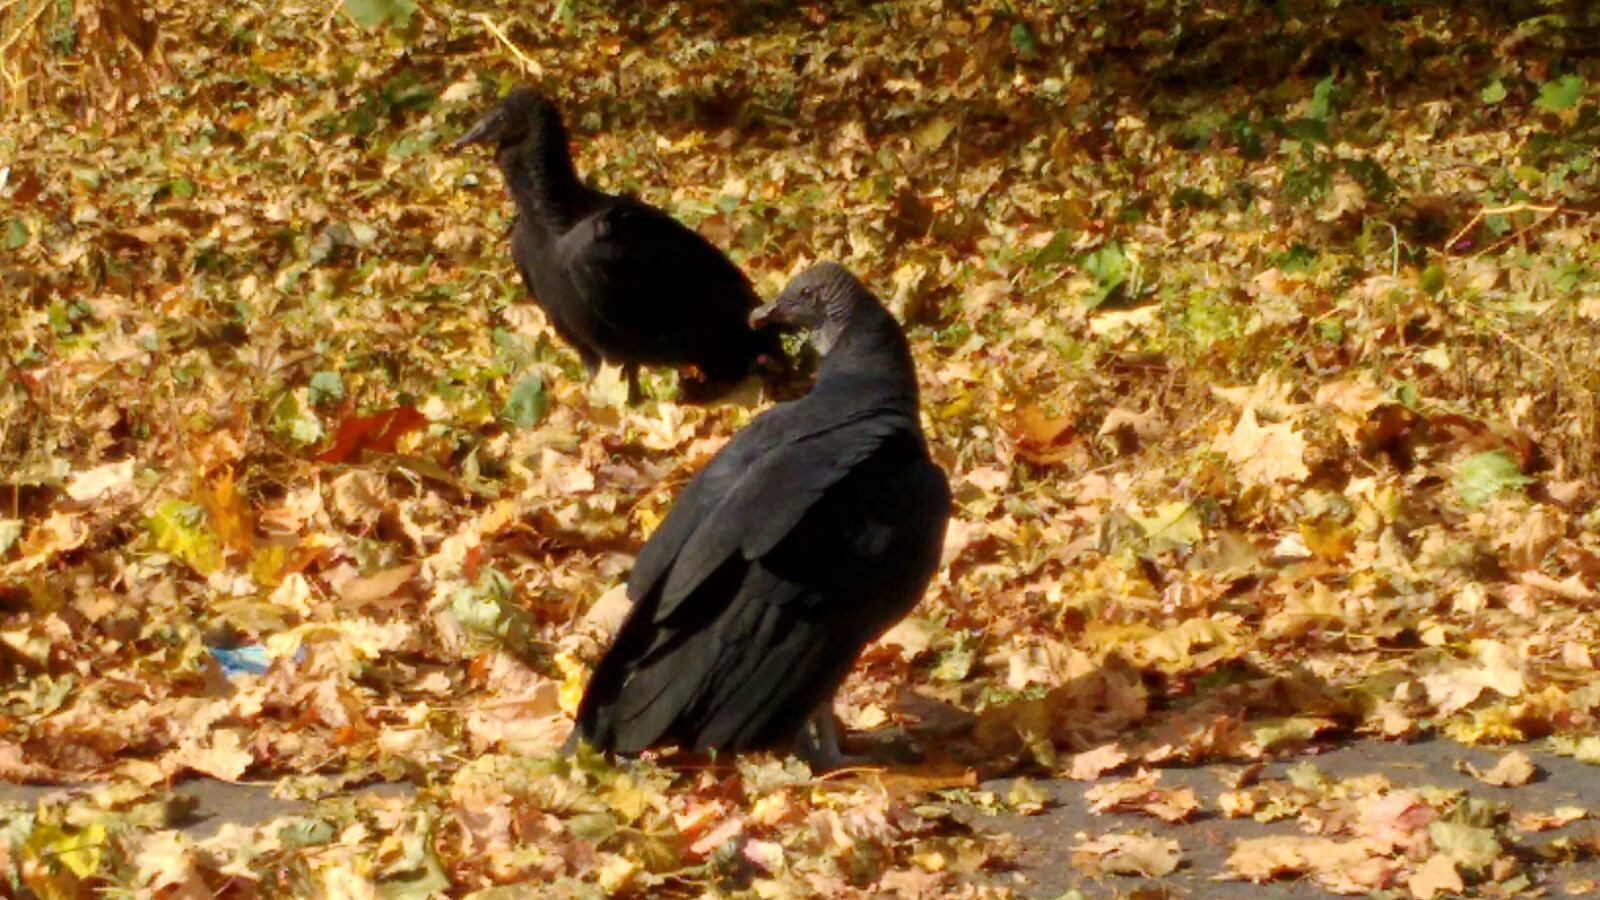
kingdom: Animalia
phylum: Chordata
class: Aves
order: Accipitriformes
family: Cathartidae
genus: Coragyps
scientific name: Coragyps atratus
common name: Black vulture
